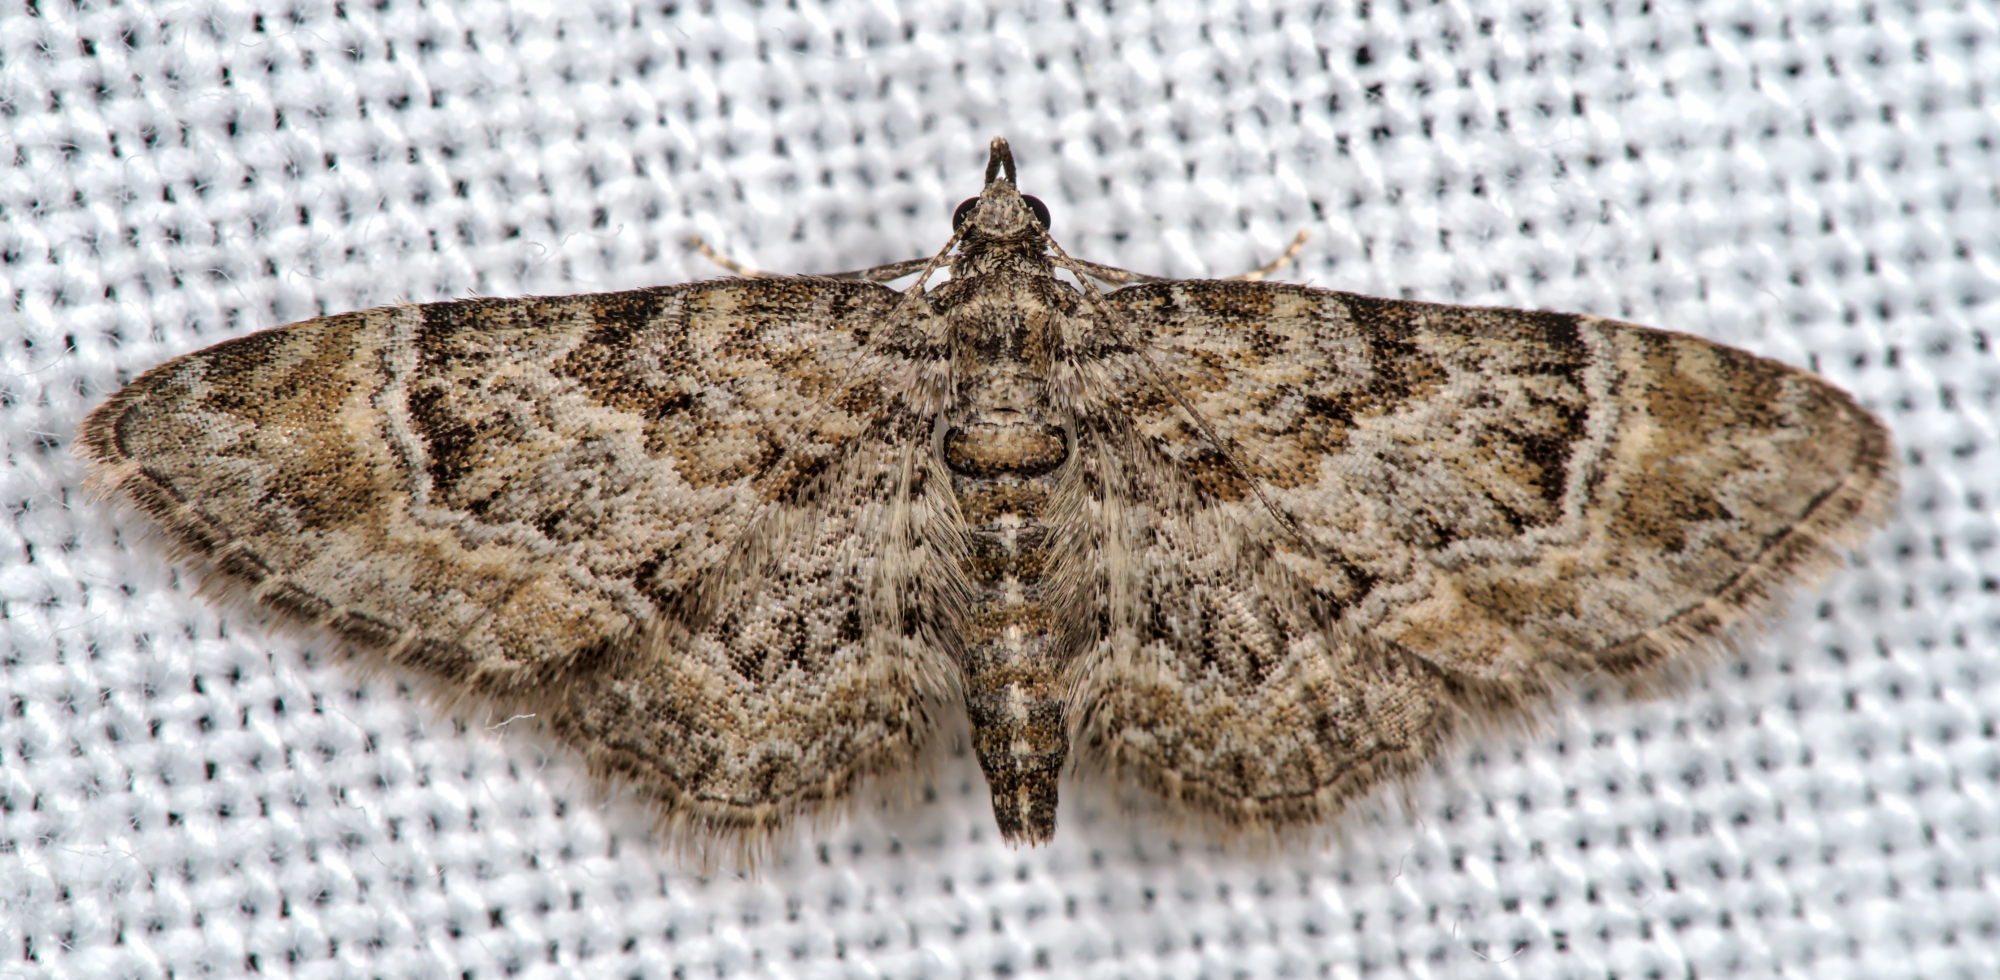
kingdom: Animalia
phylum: Arthropoda
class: Insecta
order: Lepidoptera
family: Geometridae
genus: Gymnoscelis
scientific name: Gymnoscelis rufifasciata
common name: Double-striped pug
